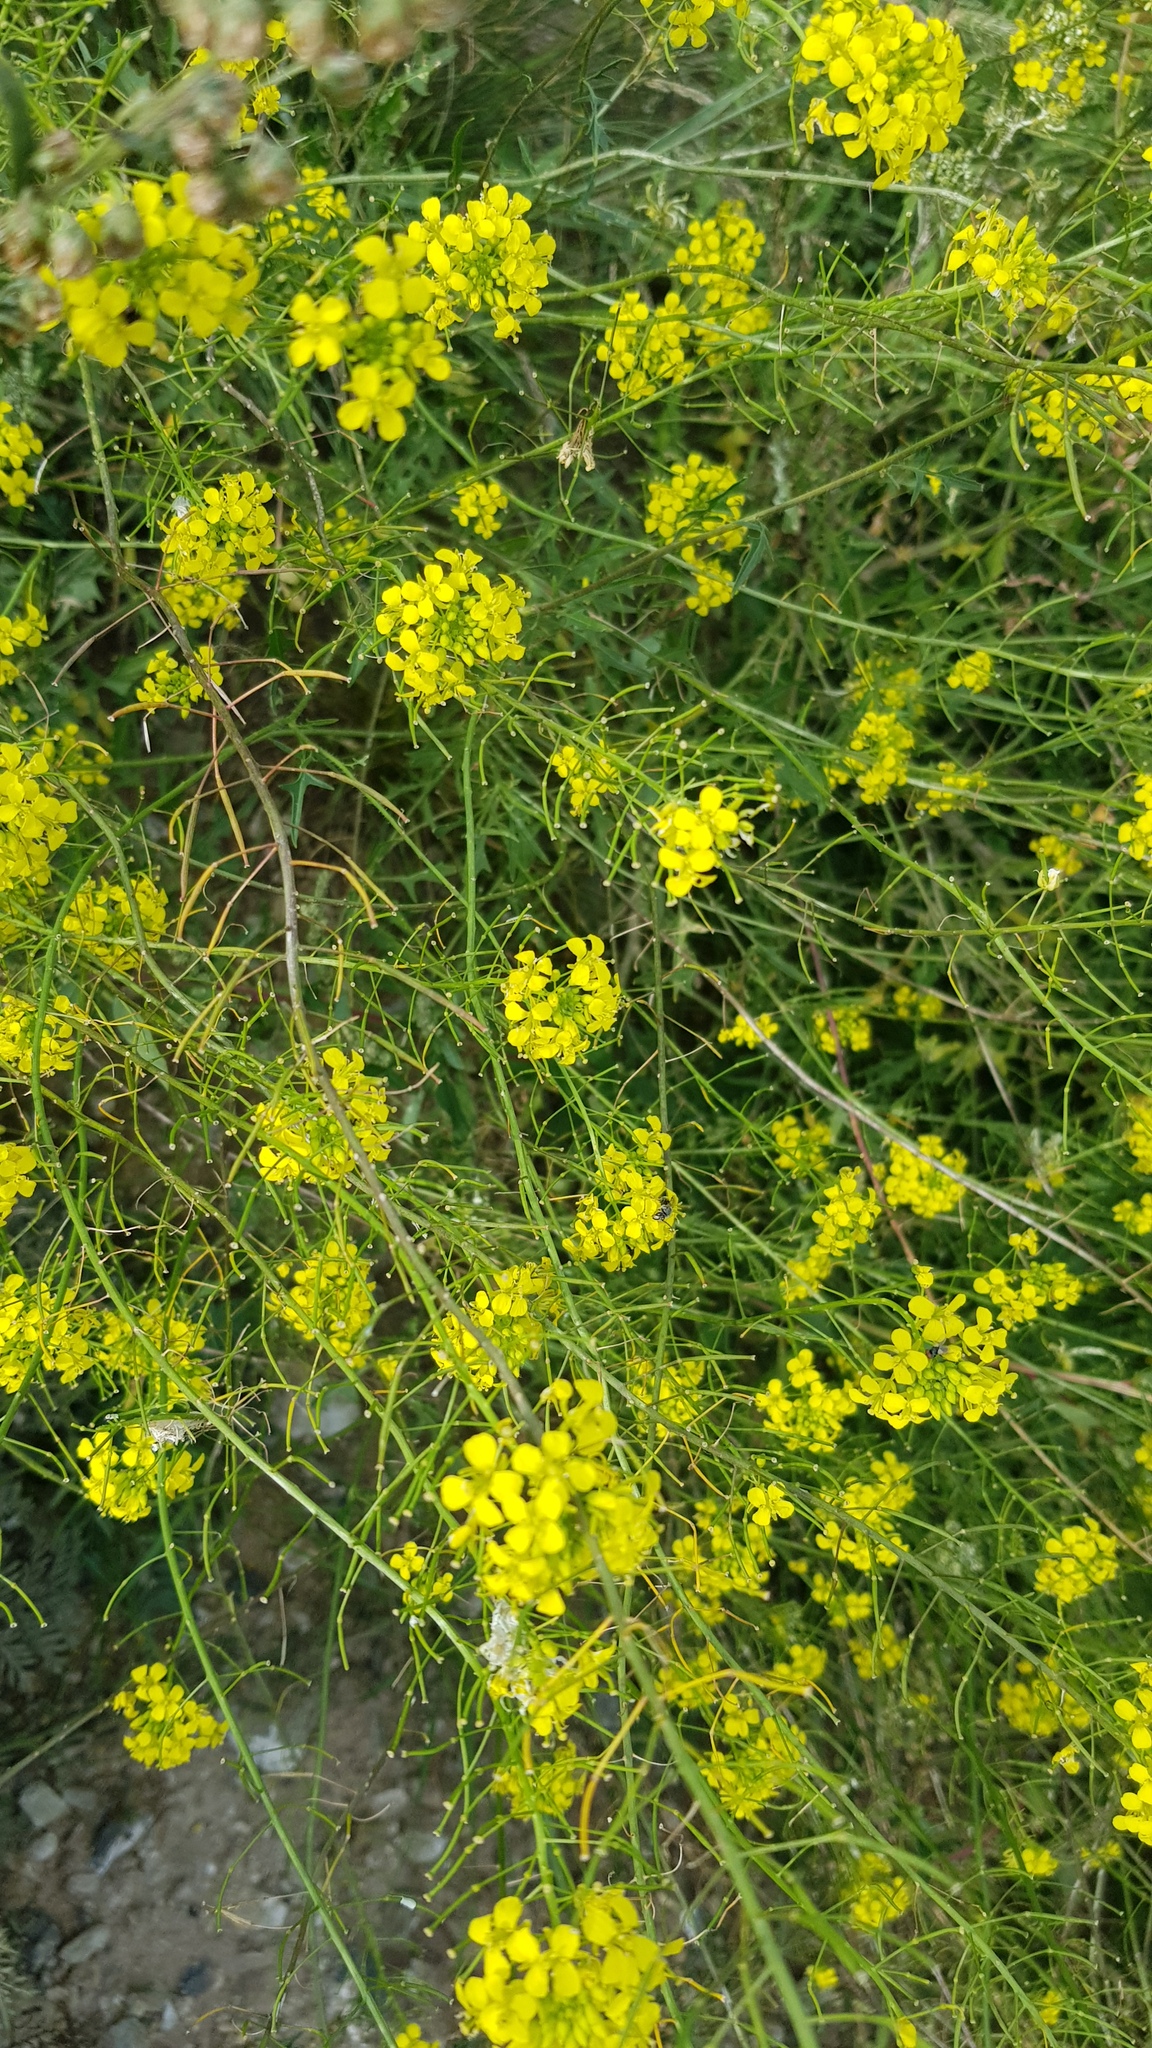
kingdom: Plantae
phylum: Tracheophyta
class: Magnoliopsida
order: Brassicales
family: Brassicaceae
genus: Sisymbrium
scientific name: Sisymbrium loeselii
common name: False london-rocket
